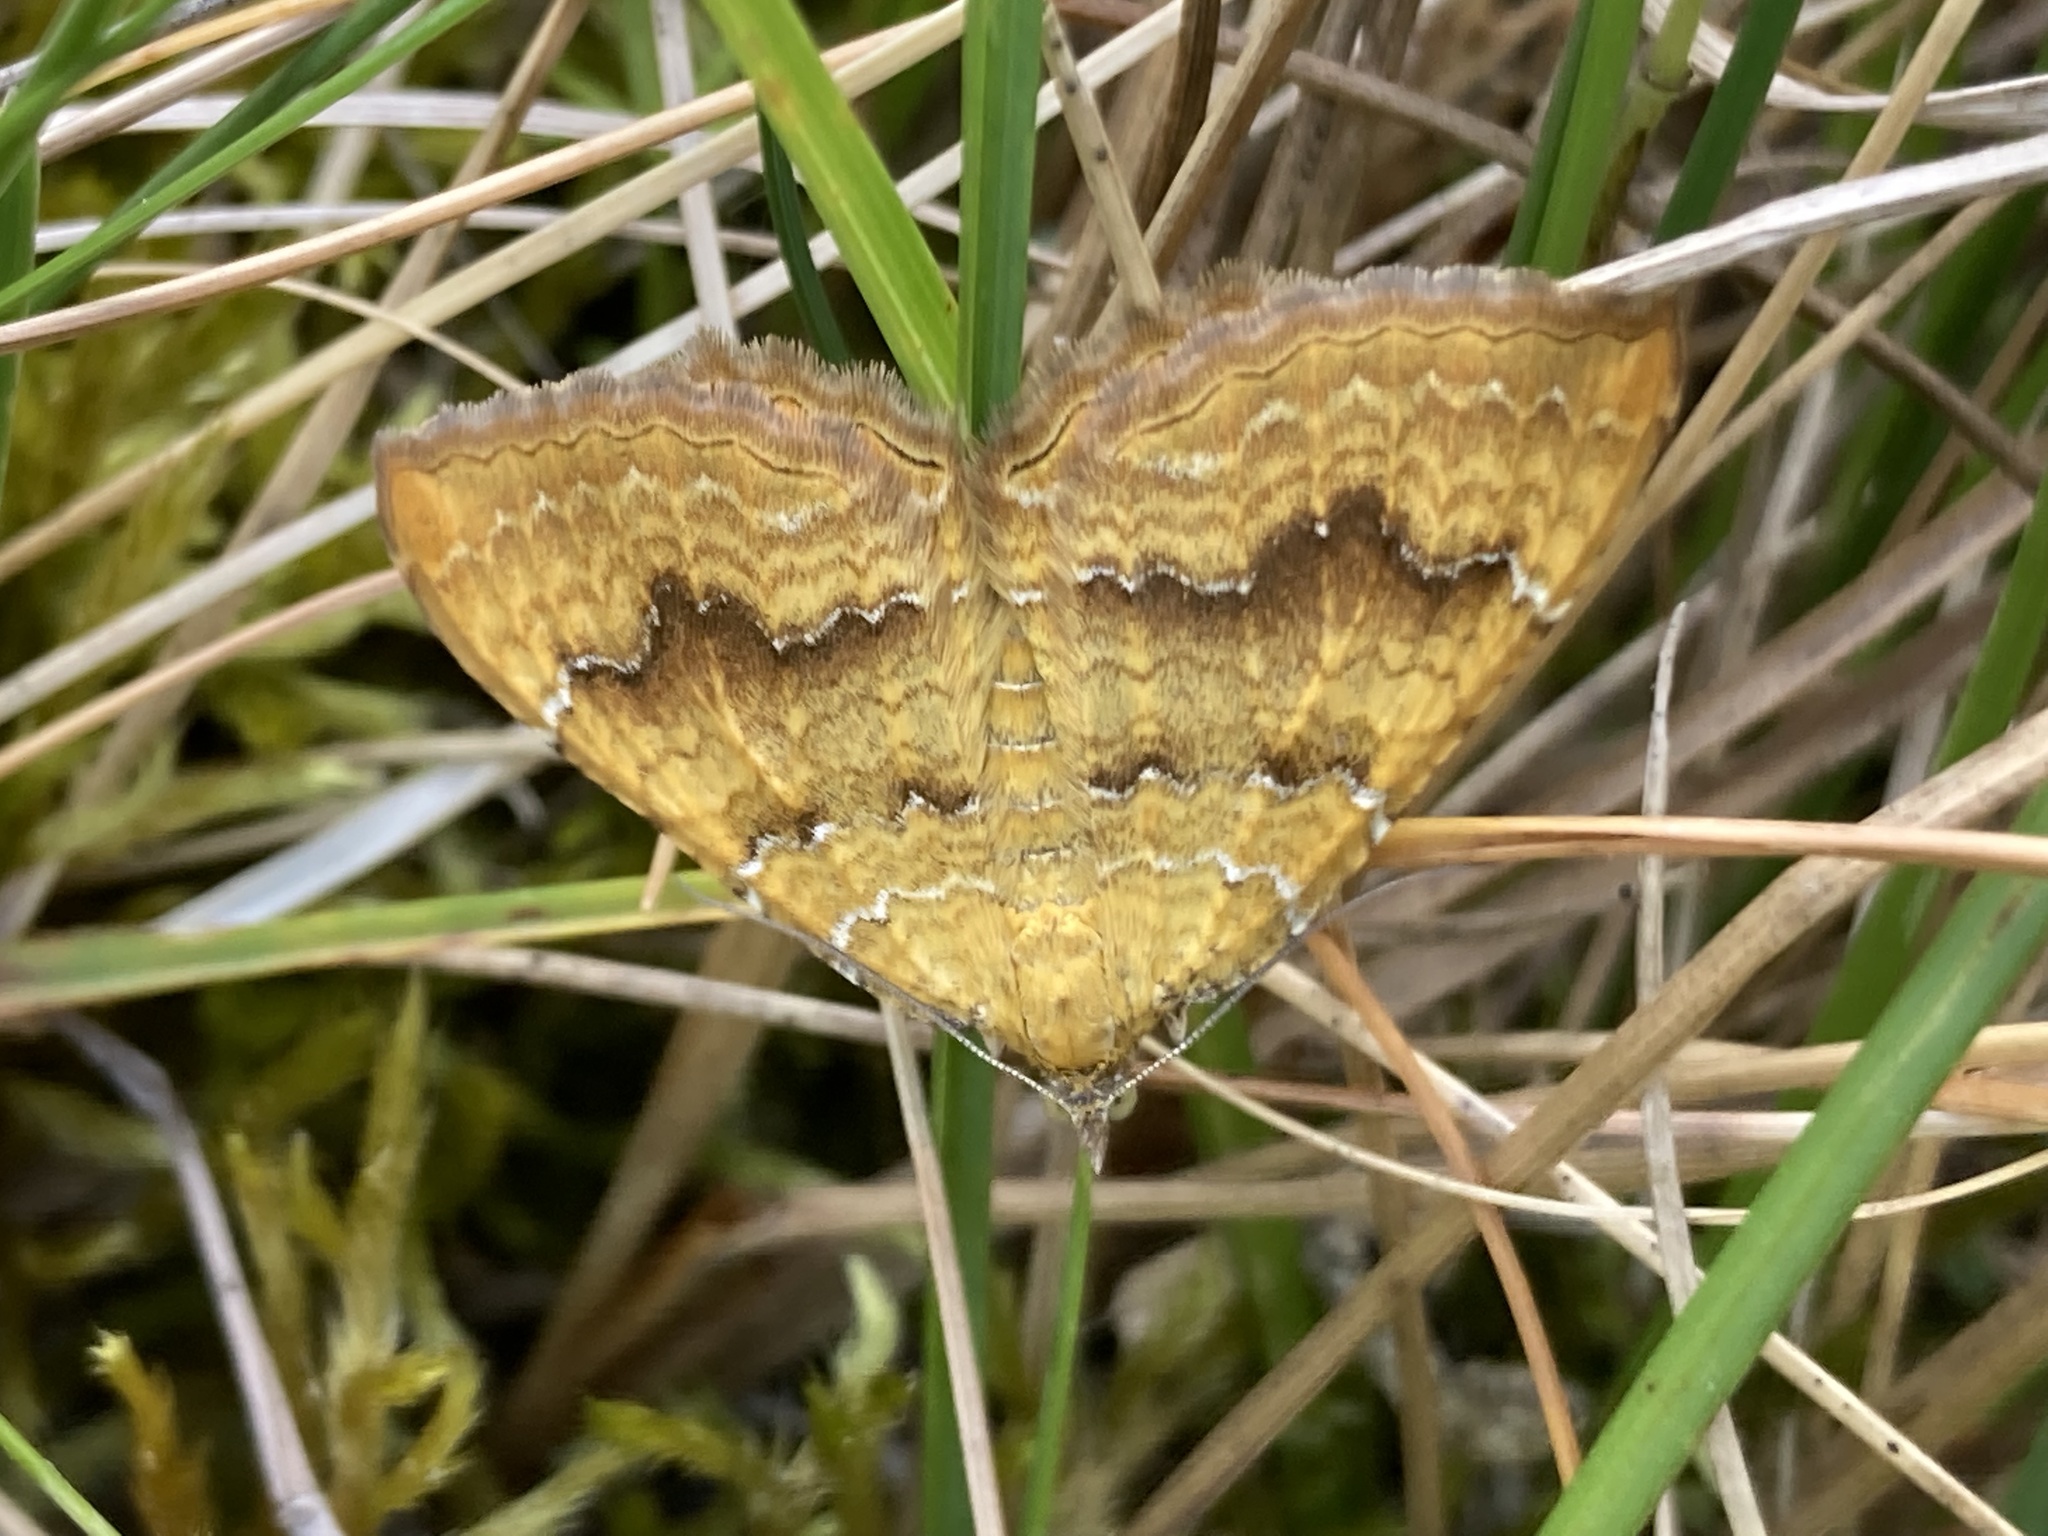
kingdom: Animalia
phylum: Arthropoda
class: Insecta
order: Lepidoptera
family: Geometridae
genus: Camptogramma
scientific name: Camptogramma bilineata
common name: Yellow shell
